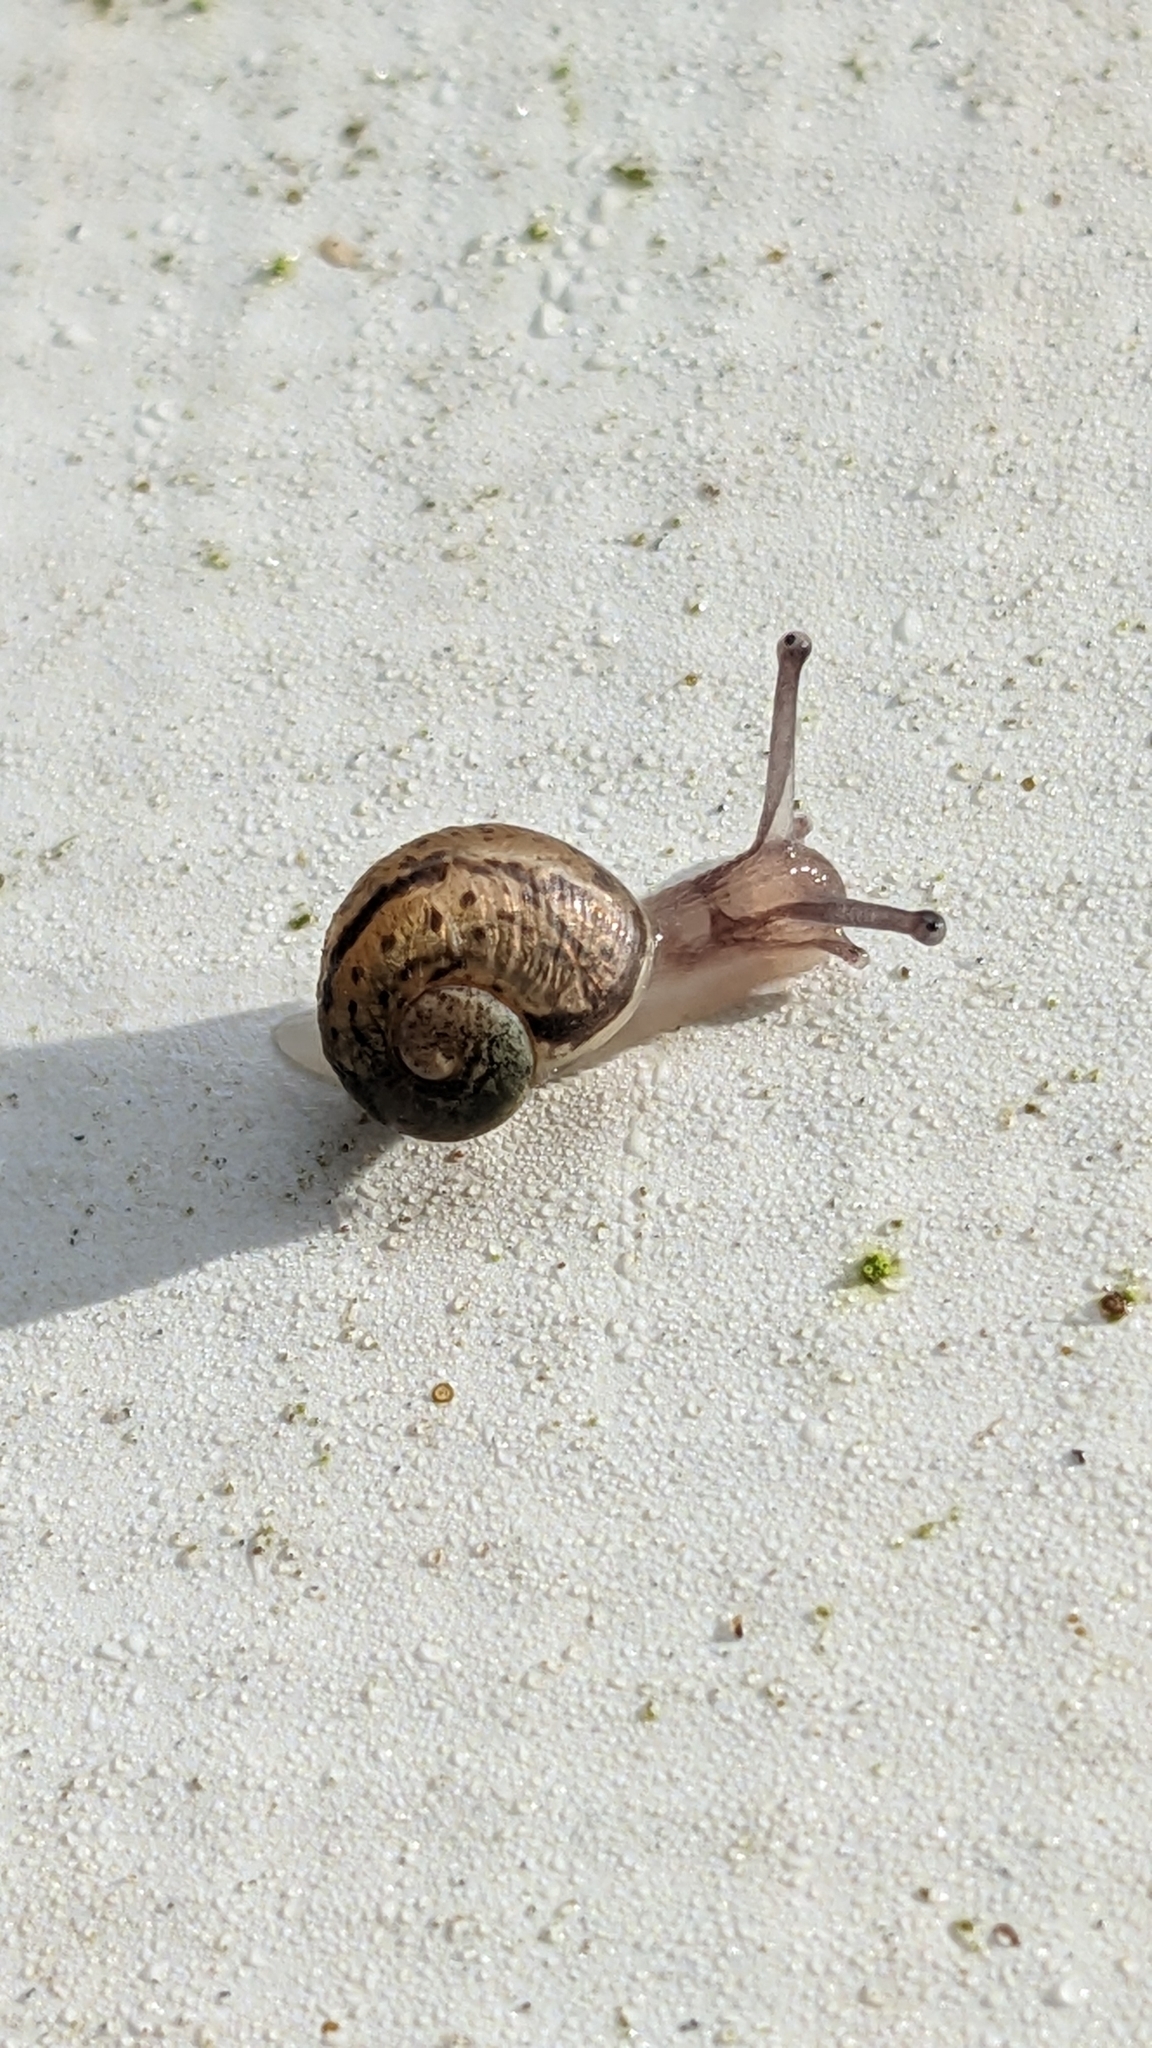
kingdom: Animalia
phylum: Mollusca
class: Gastropoda
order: Stylommatophora
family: Helicidae
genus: Cornu
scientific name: Cornu aspersum
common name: Brown garden snail
